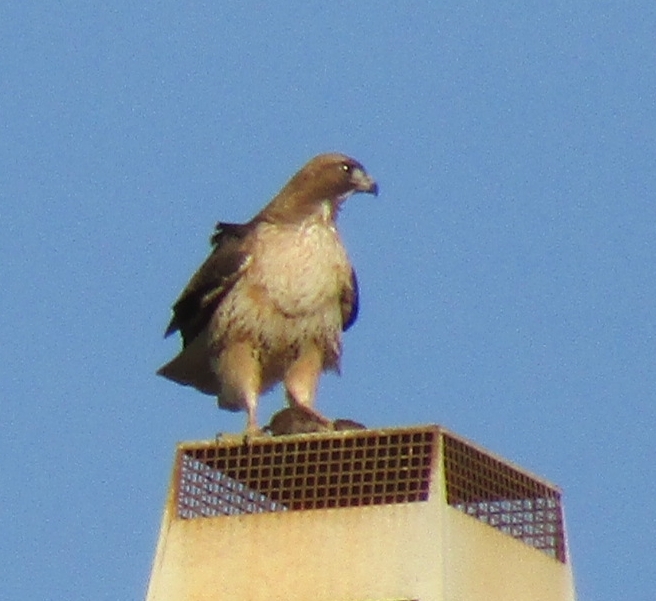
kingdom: Animalia
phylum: Chordata
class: Aves
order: Accipitriformes
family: Accipitridae
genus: Buteo
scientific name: Buteo jamaicensis
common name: Red-tailed hawk
